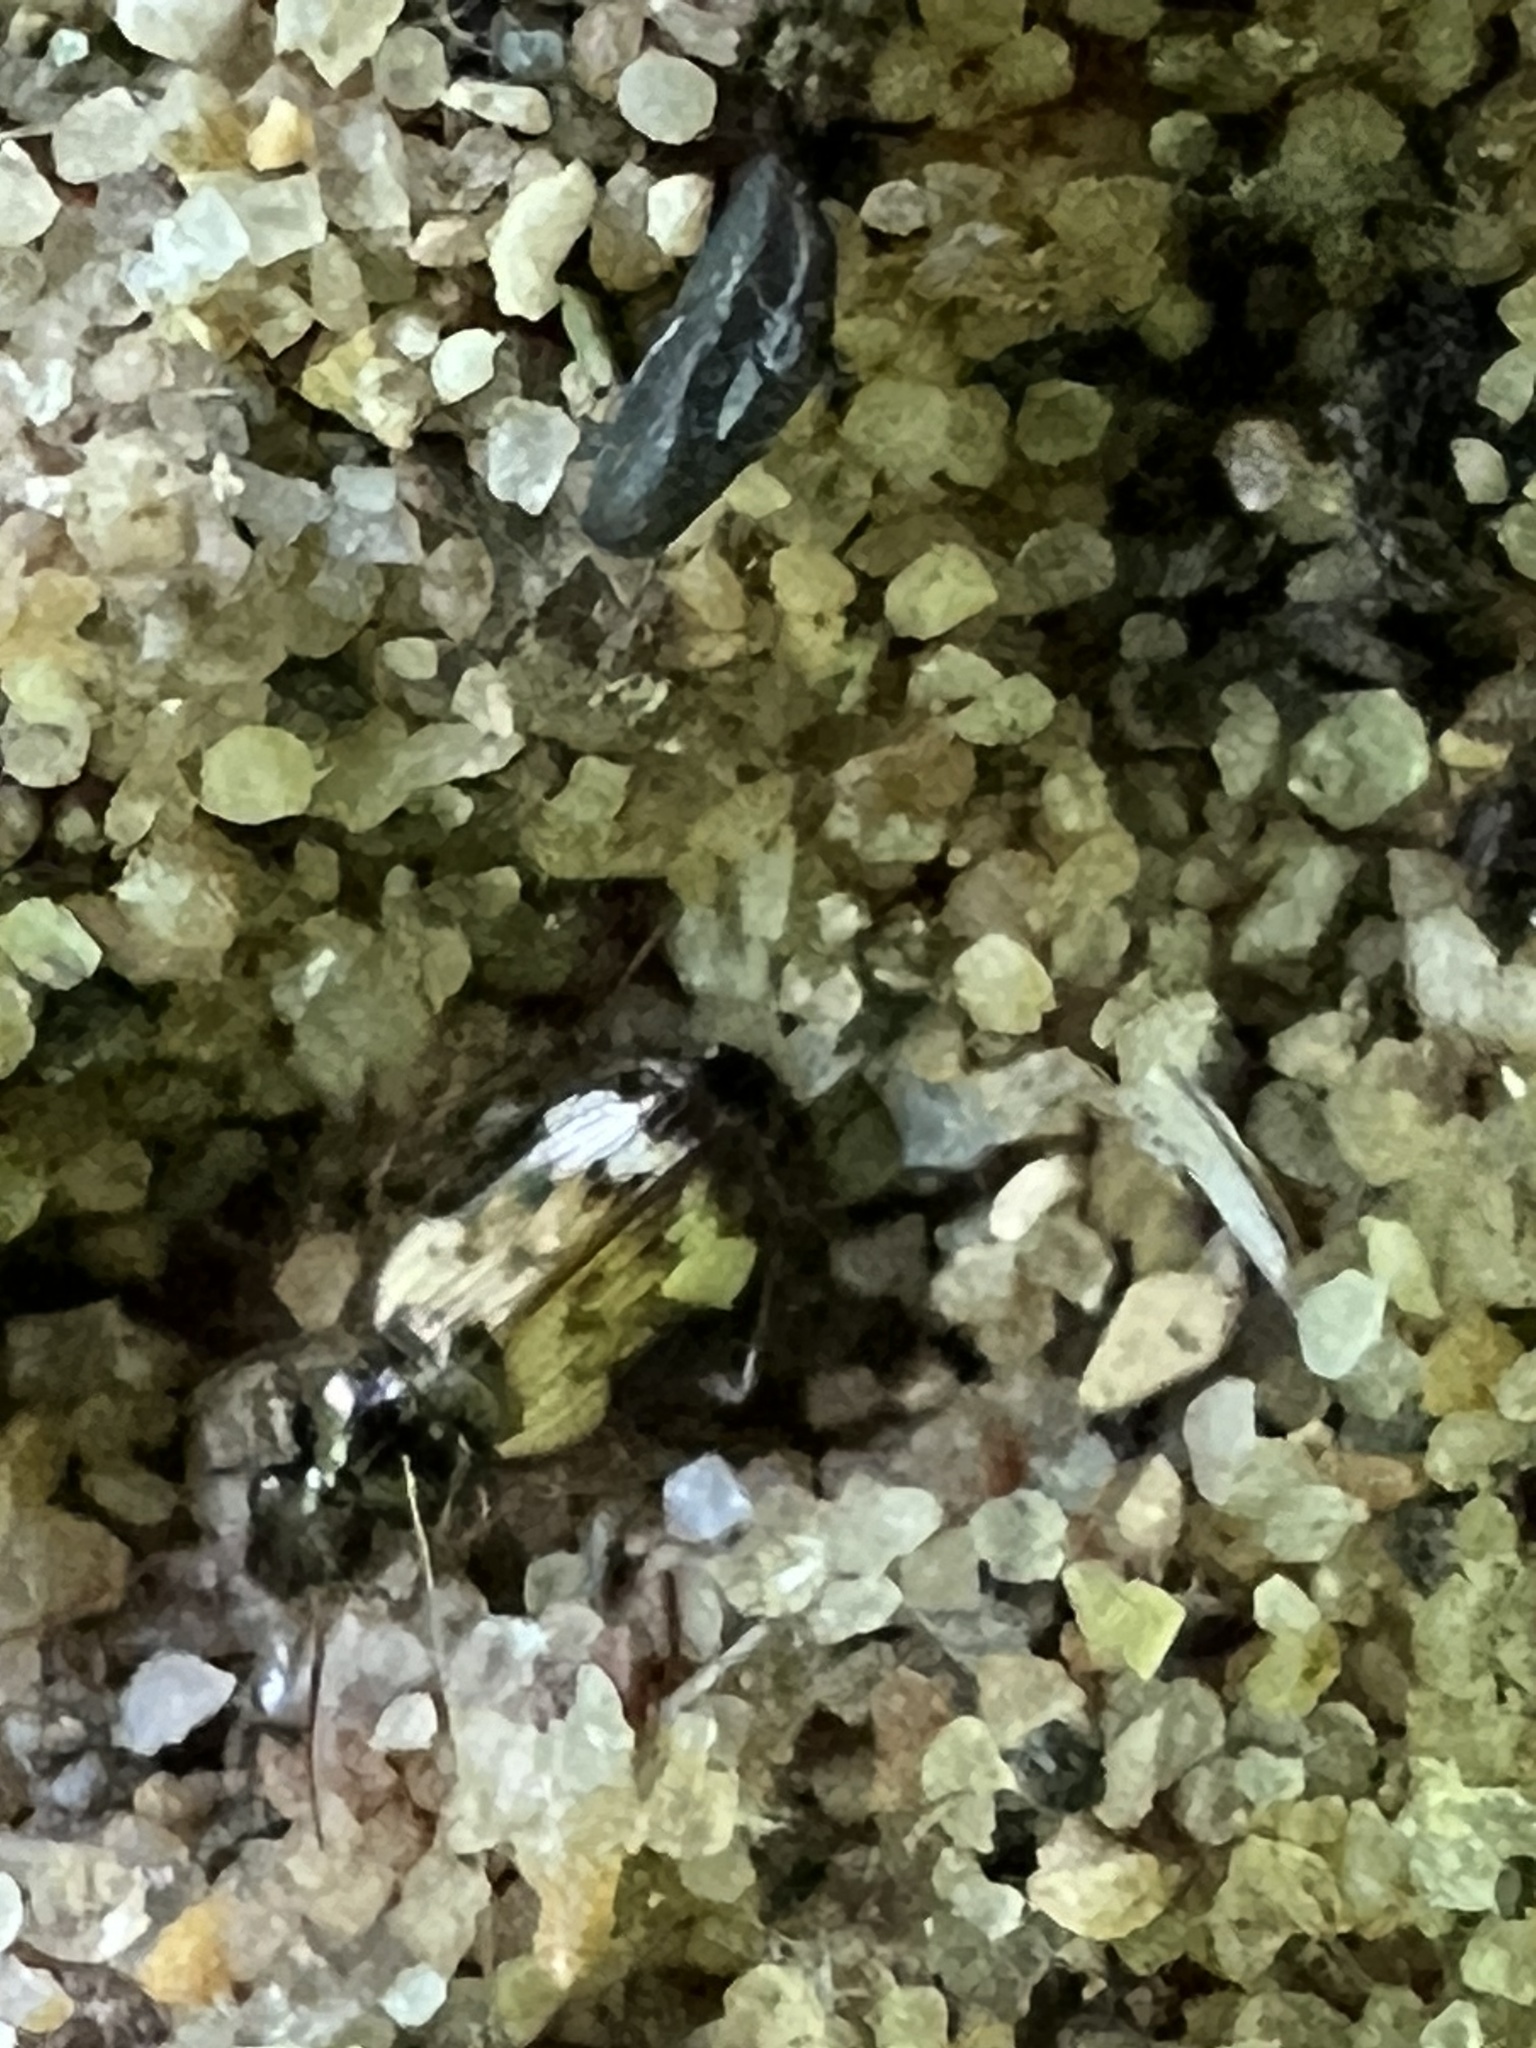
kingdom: Animalia
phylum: Arthropoda
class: Insecta
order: Coleoptera
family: Carabidae
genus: Tetragonoderus
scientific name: Tetragonoderus fasciatus
